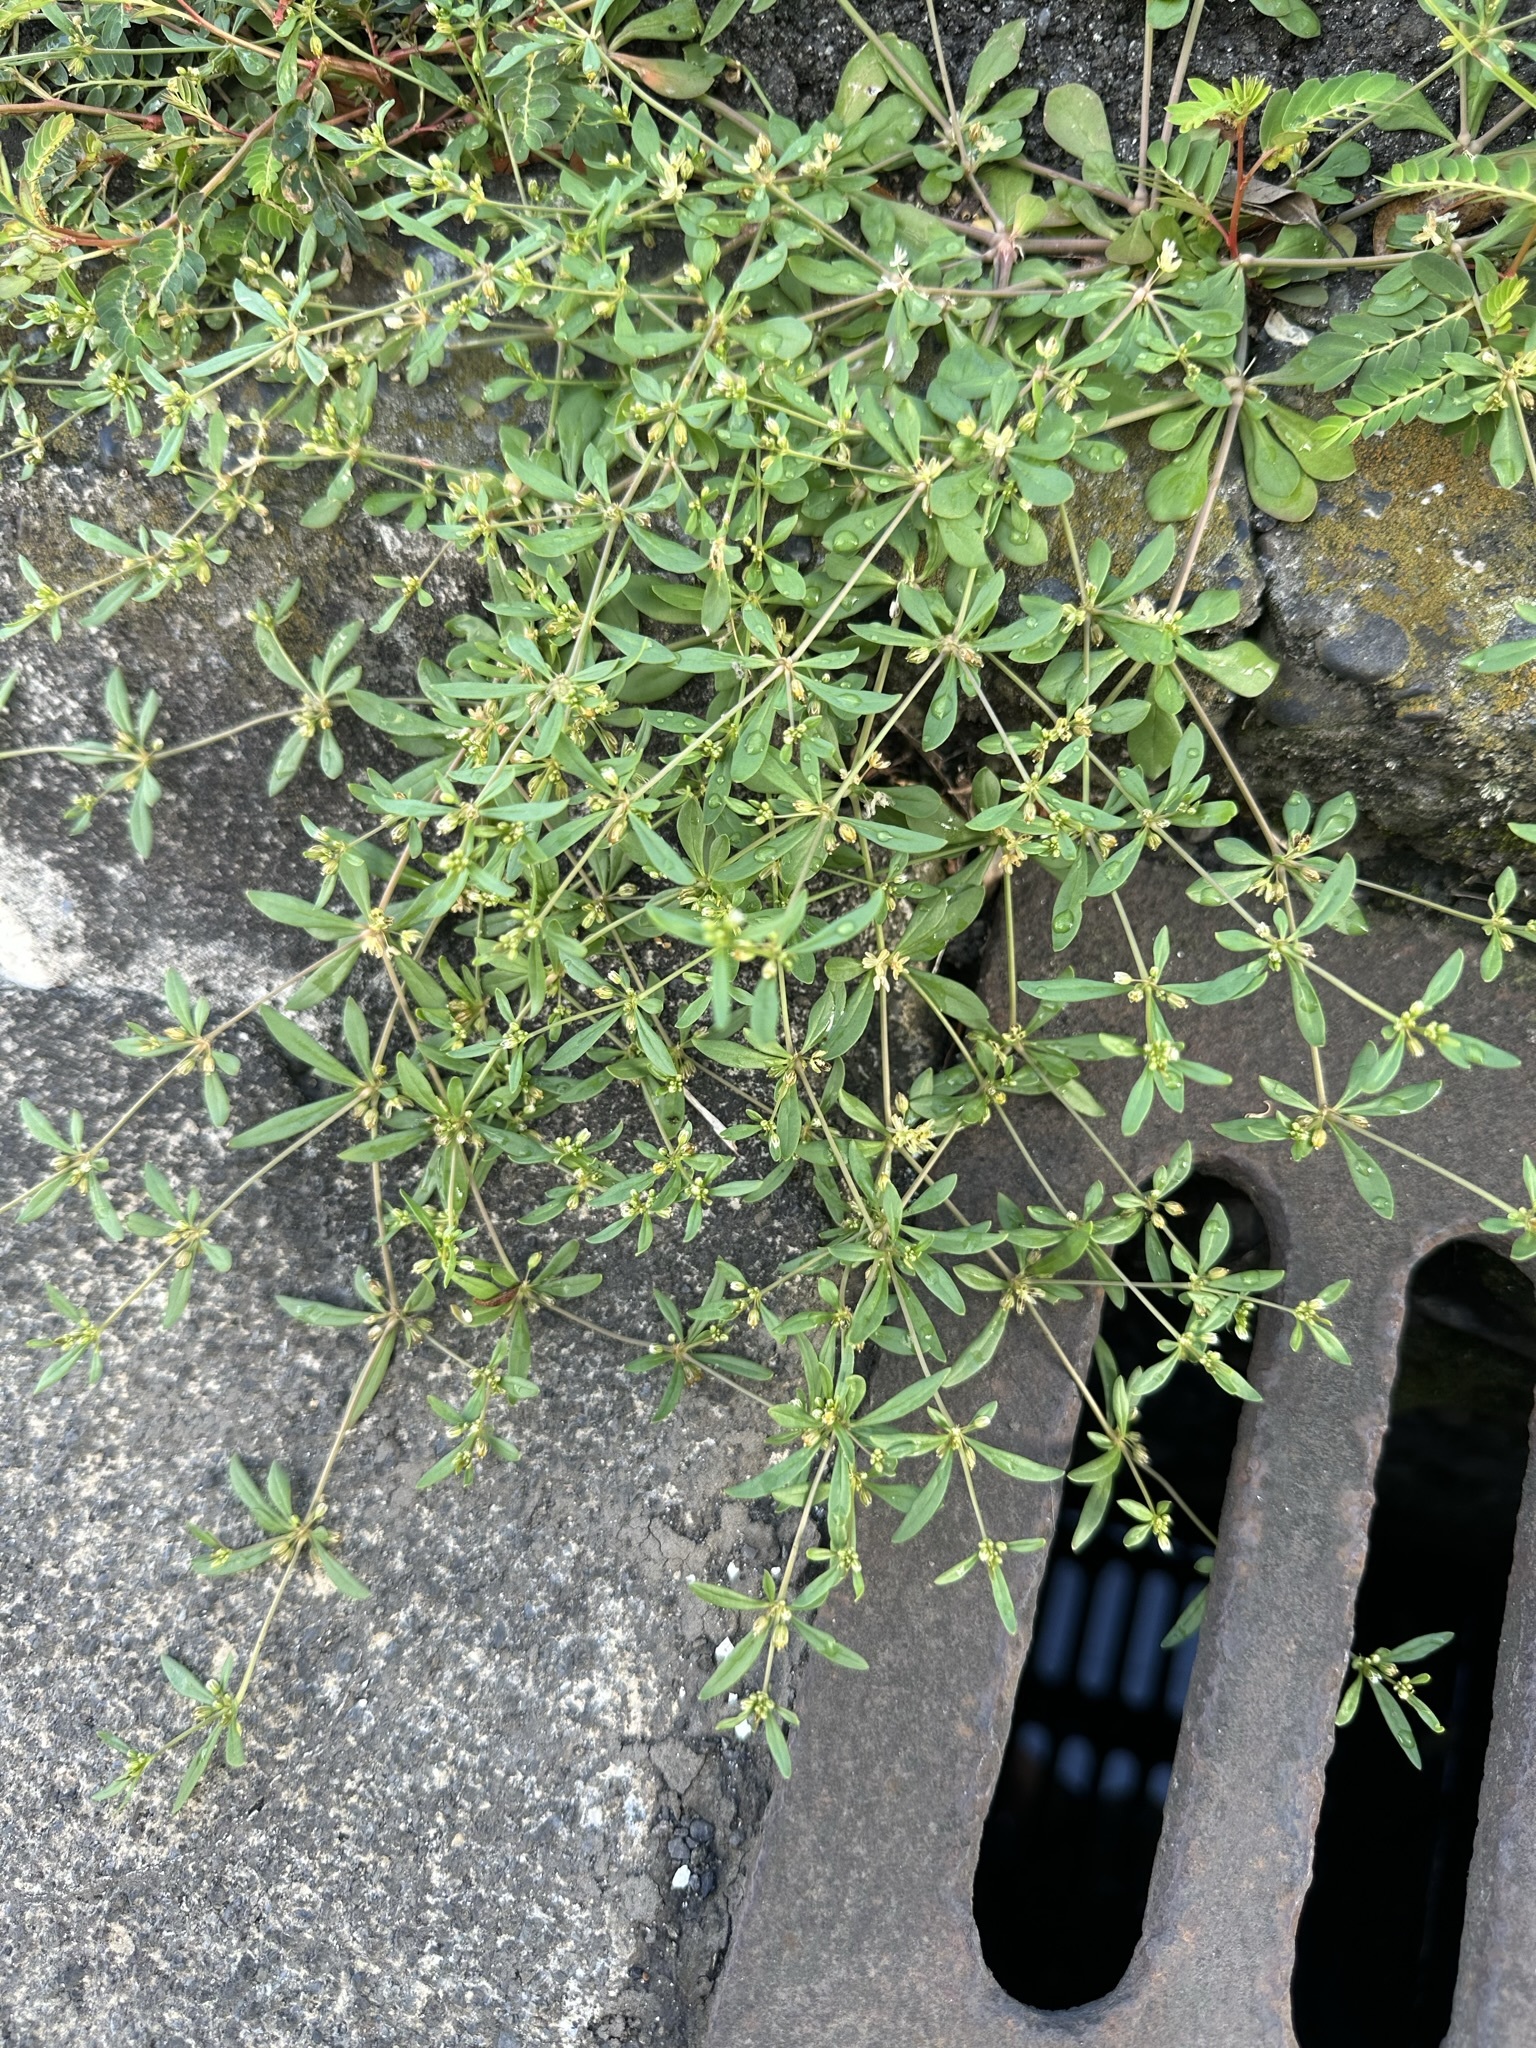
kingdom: Plantae
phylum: Tracheophyta
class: Magnoliopsida
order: Caryophyllales
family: Molluginaceae
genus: Mollugo
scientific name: Mollugo verticillata
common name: Green carpetweed
